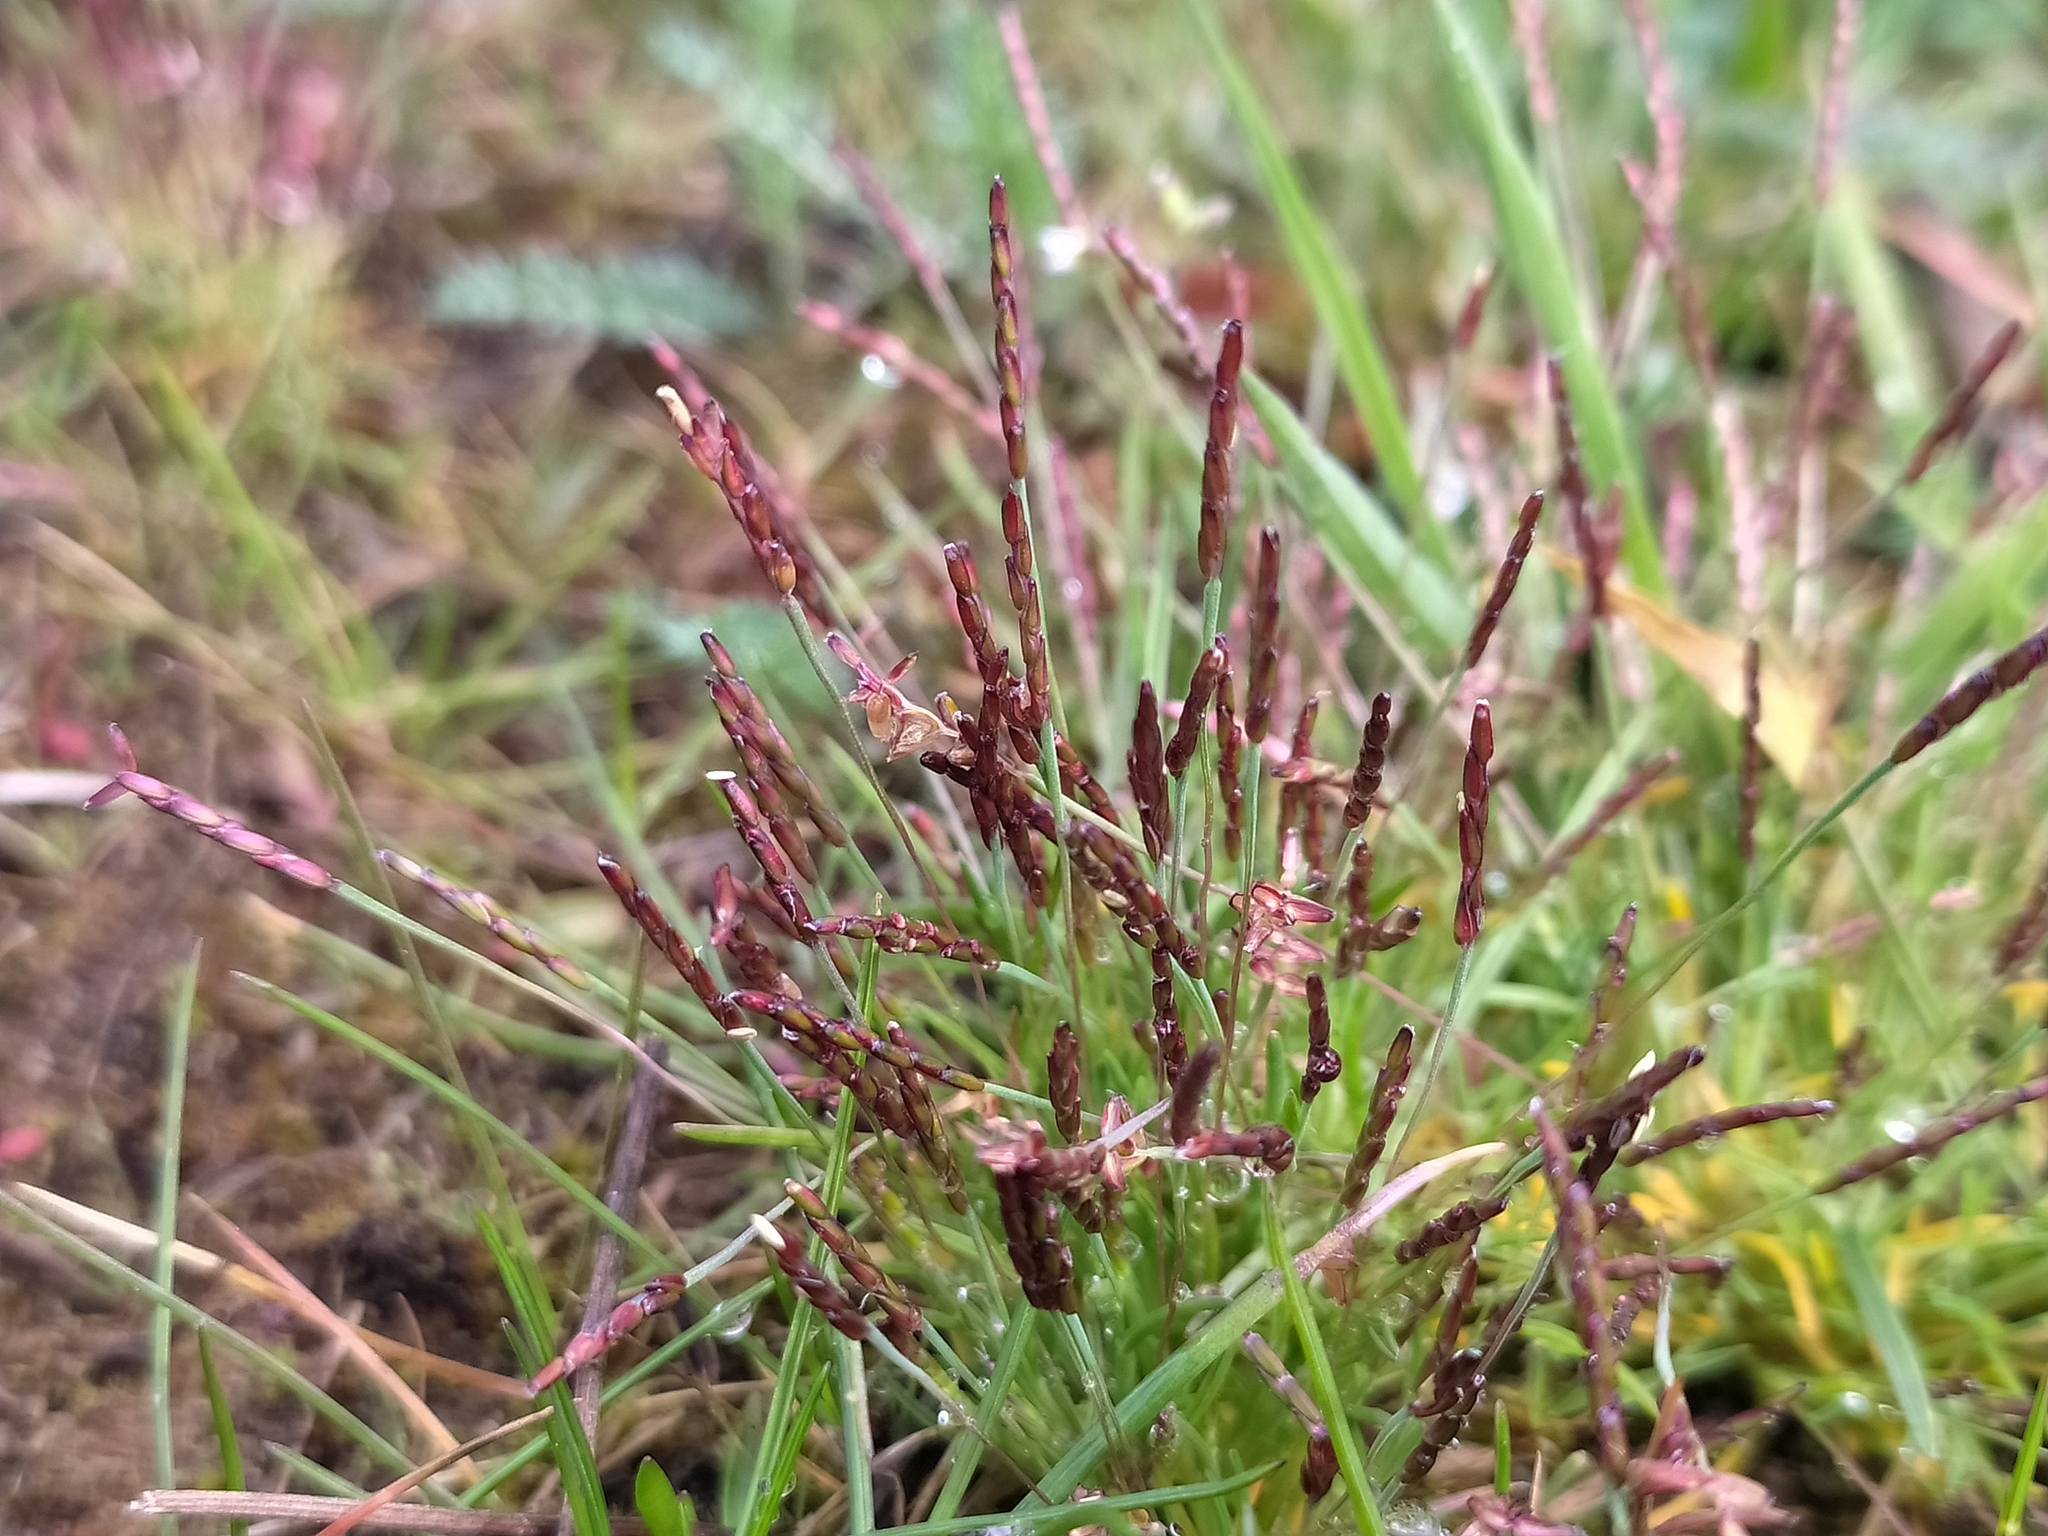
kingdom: Plantae
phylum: Tracheophyta
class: Liliopsida
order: Poales
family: Poaceae
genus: Mibora
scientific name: Mibora minima
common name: Early sand-grass
